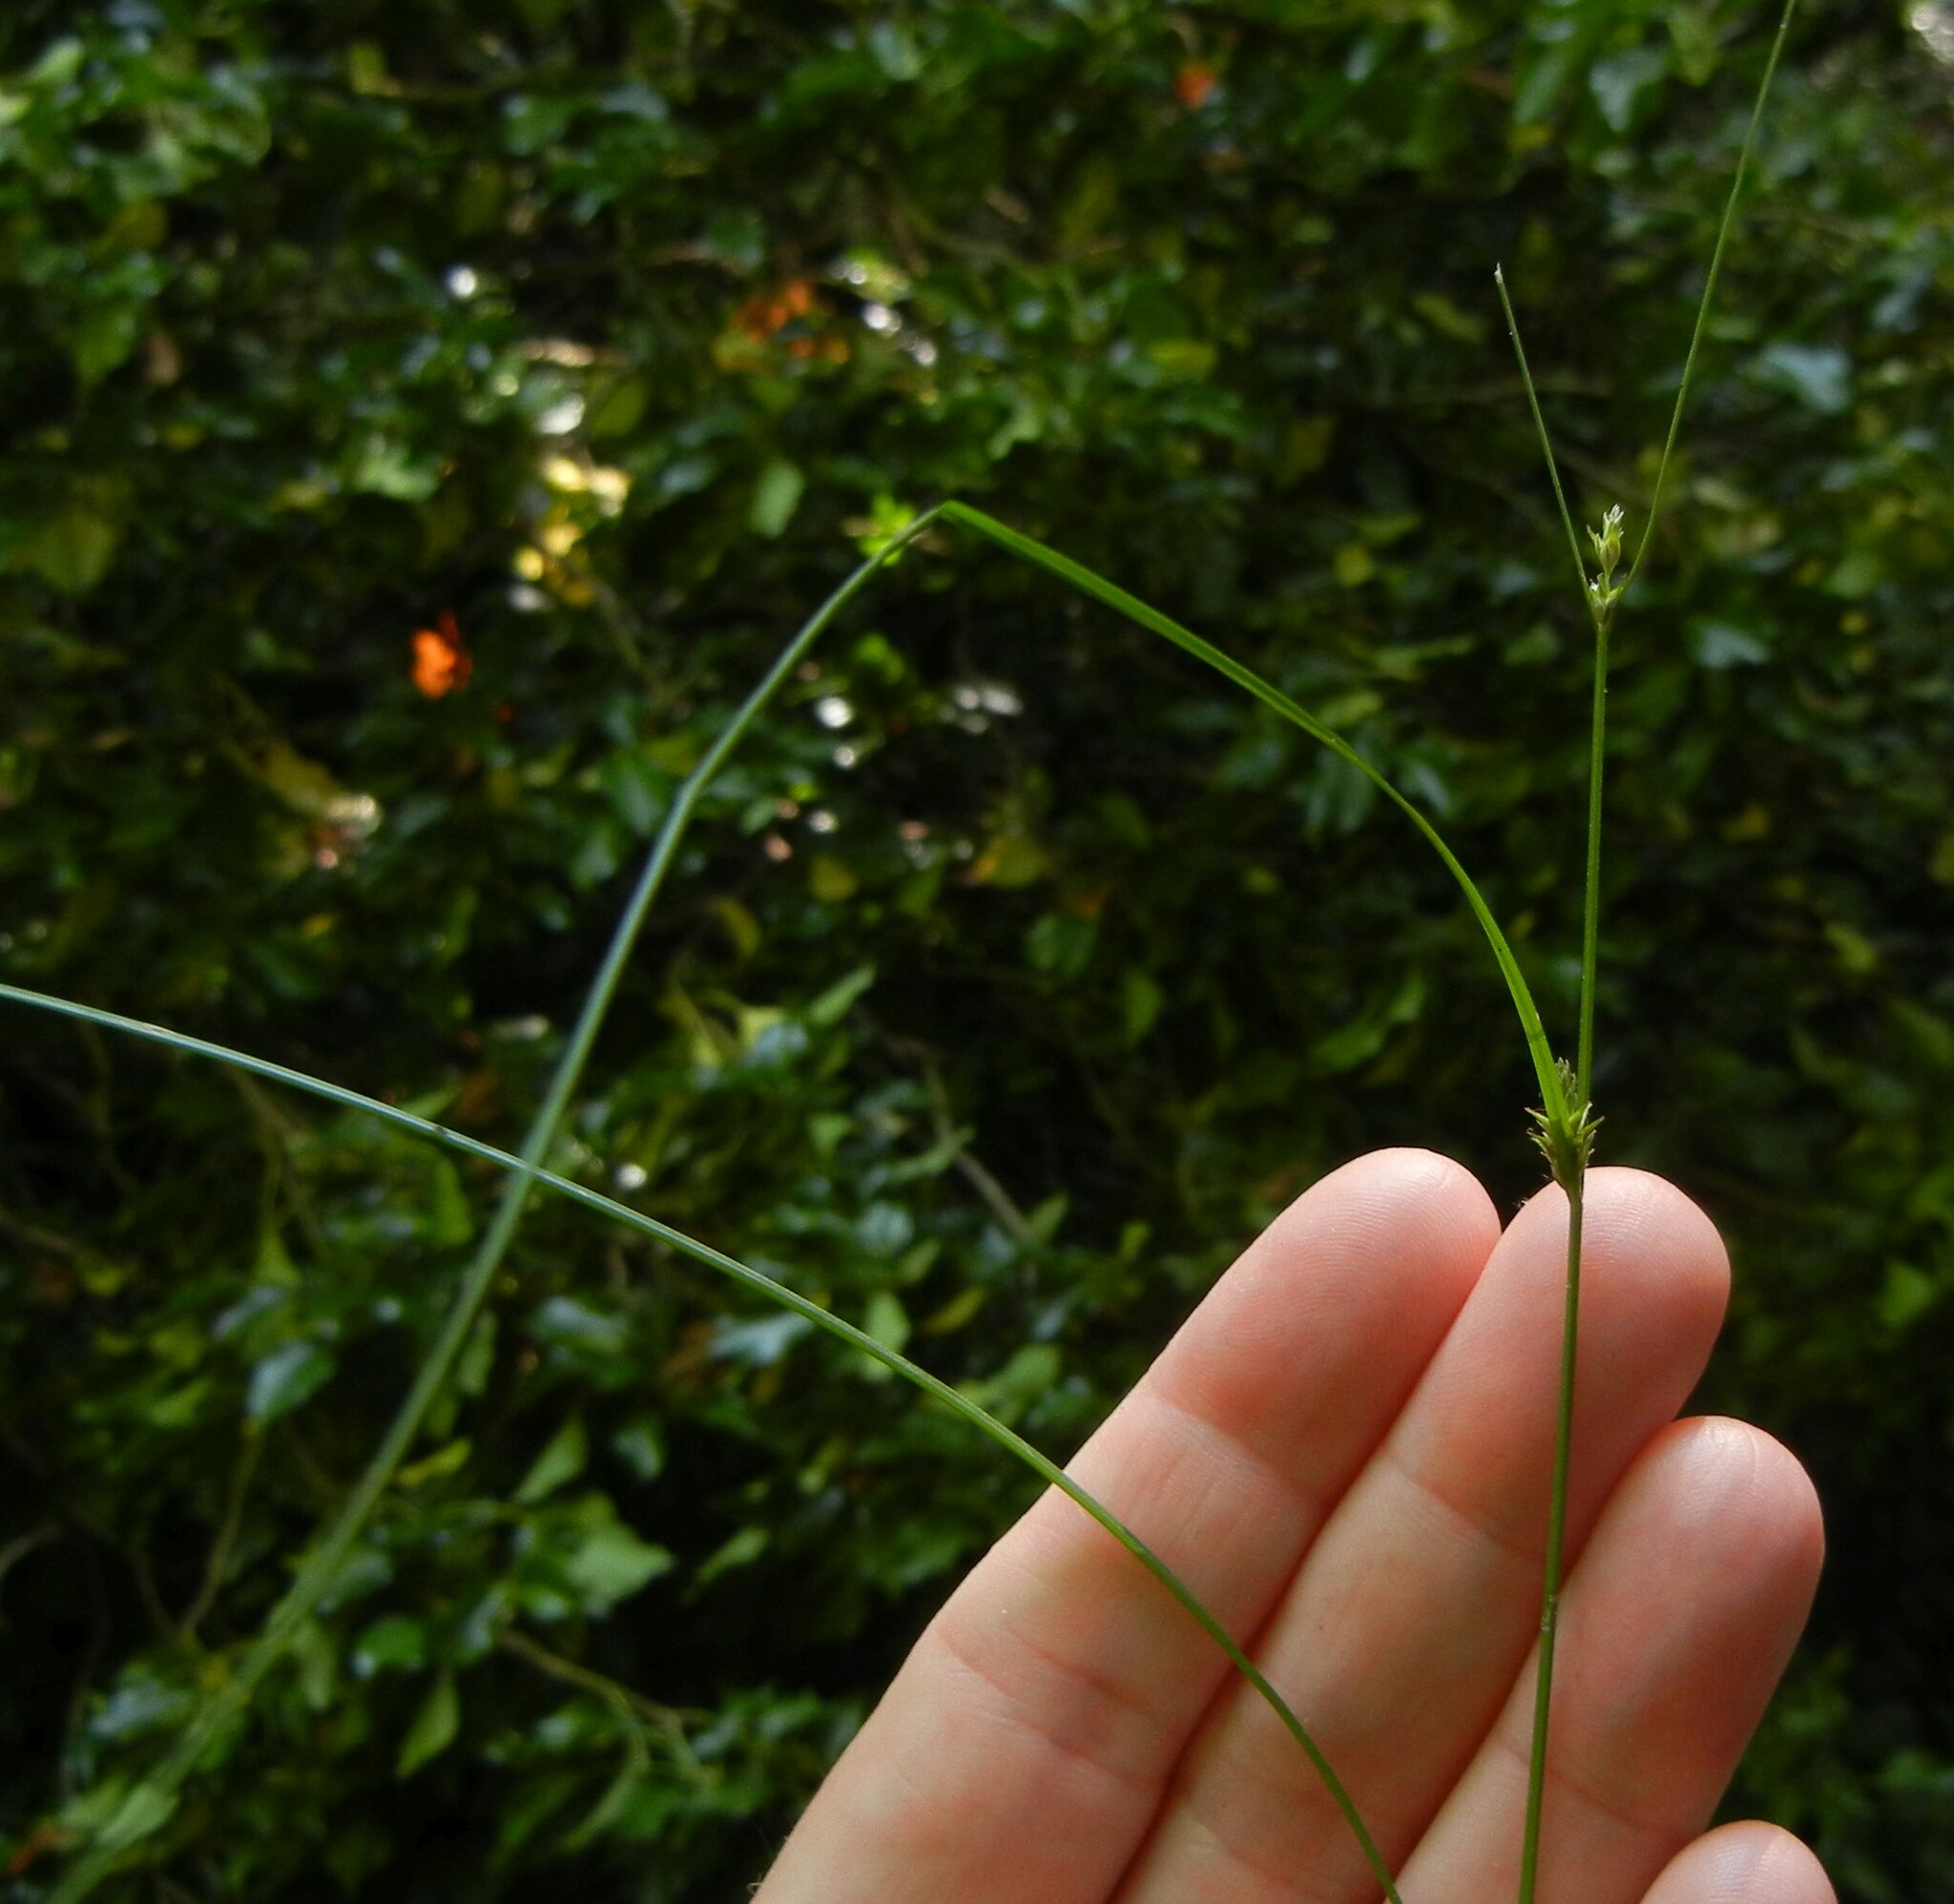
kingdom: Plantae
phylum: Tracheophyta
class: Liliopsida
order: Poales
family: Cyperaceae
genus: Carex
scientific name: Carex remota
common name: Remote sedge
